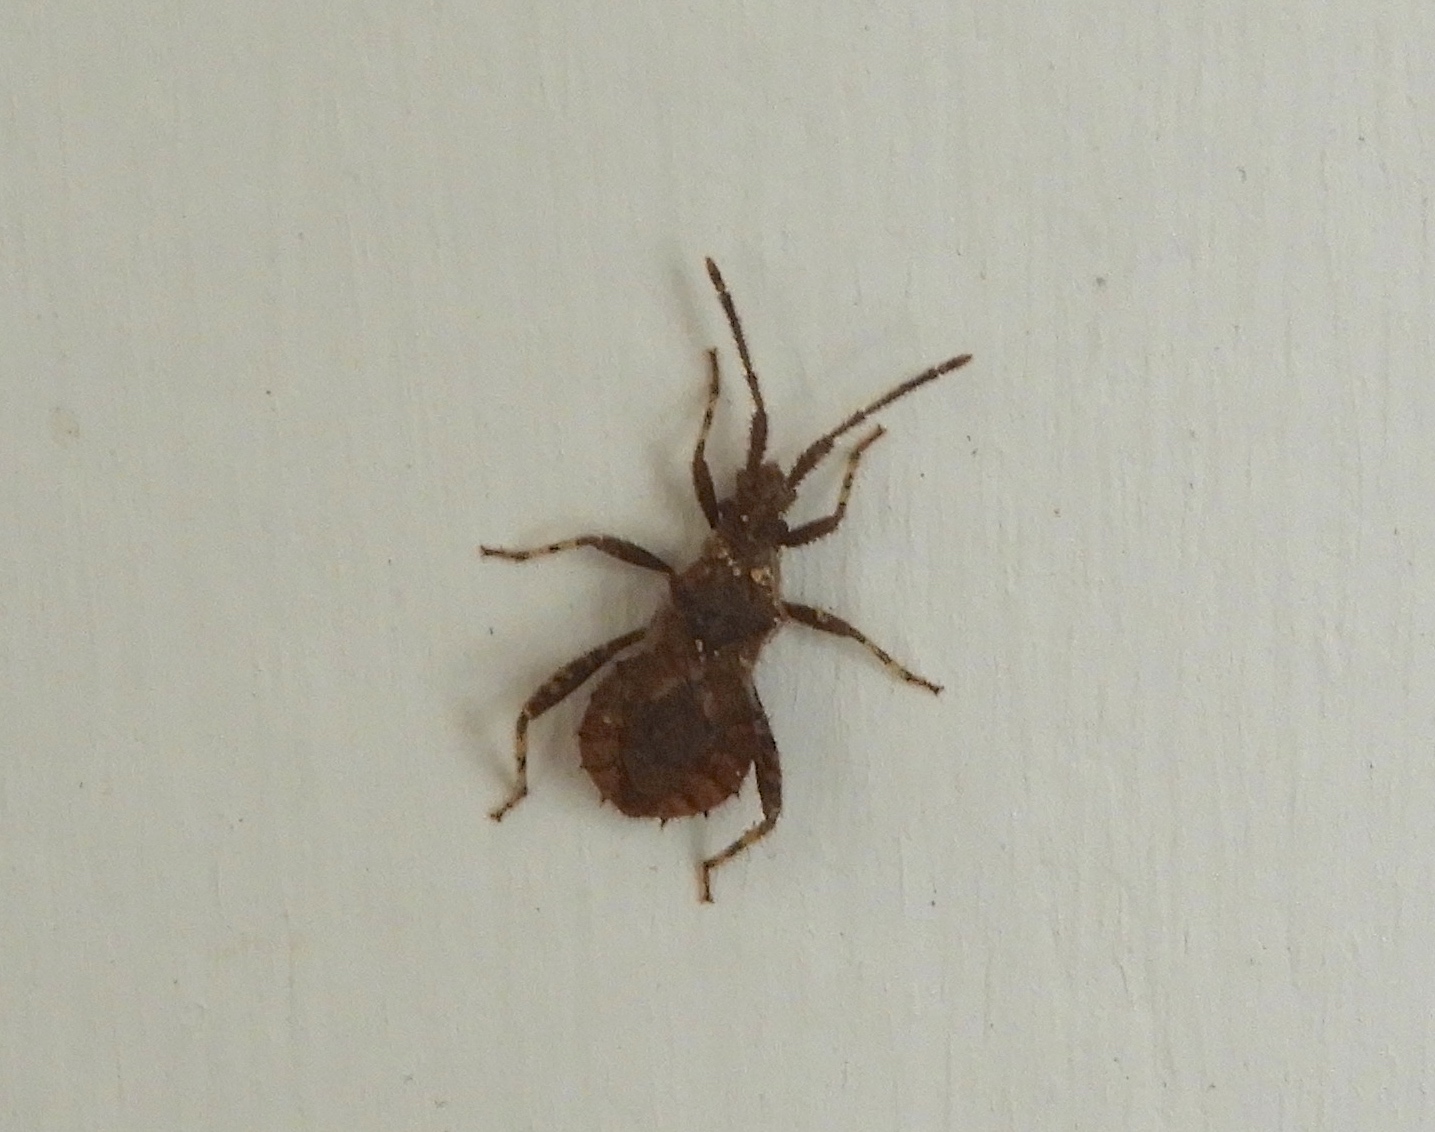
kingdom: Animalia
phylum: Arthropoda
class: Insecta
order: Hemiptera
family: Coreidae
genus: Vilga
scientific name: Vilga mexicana
